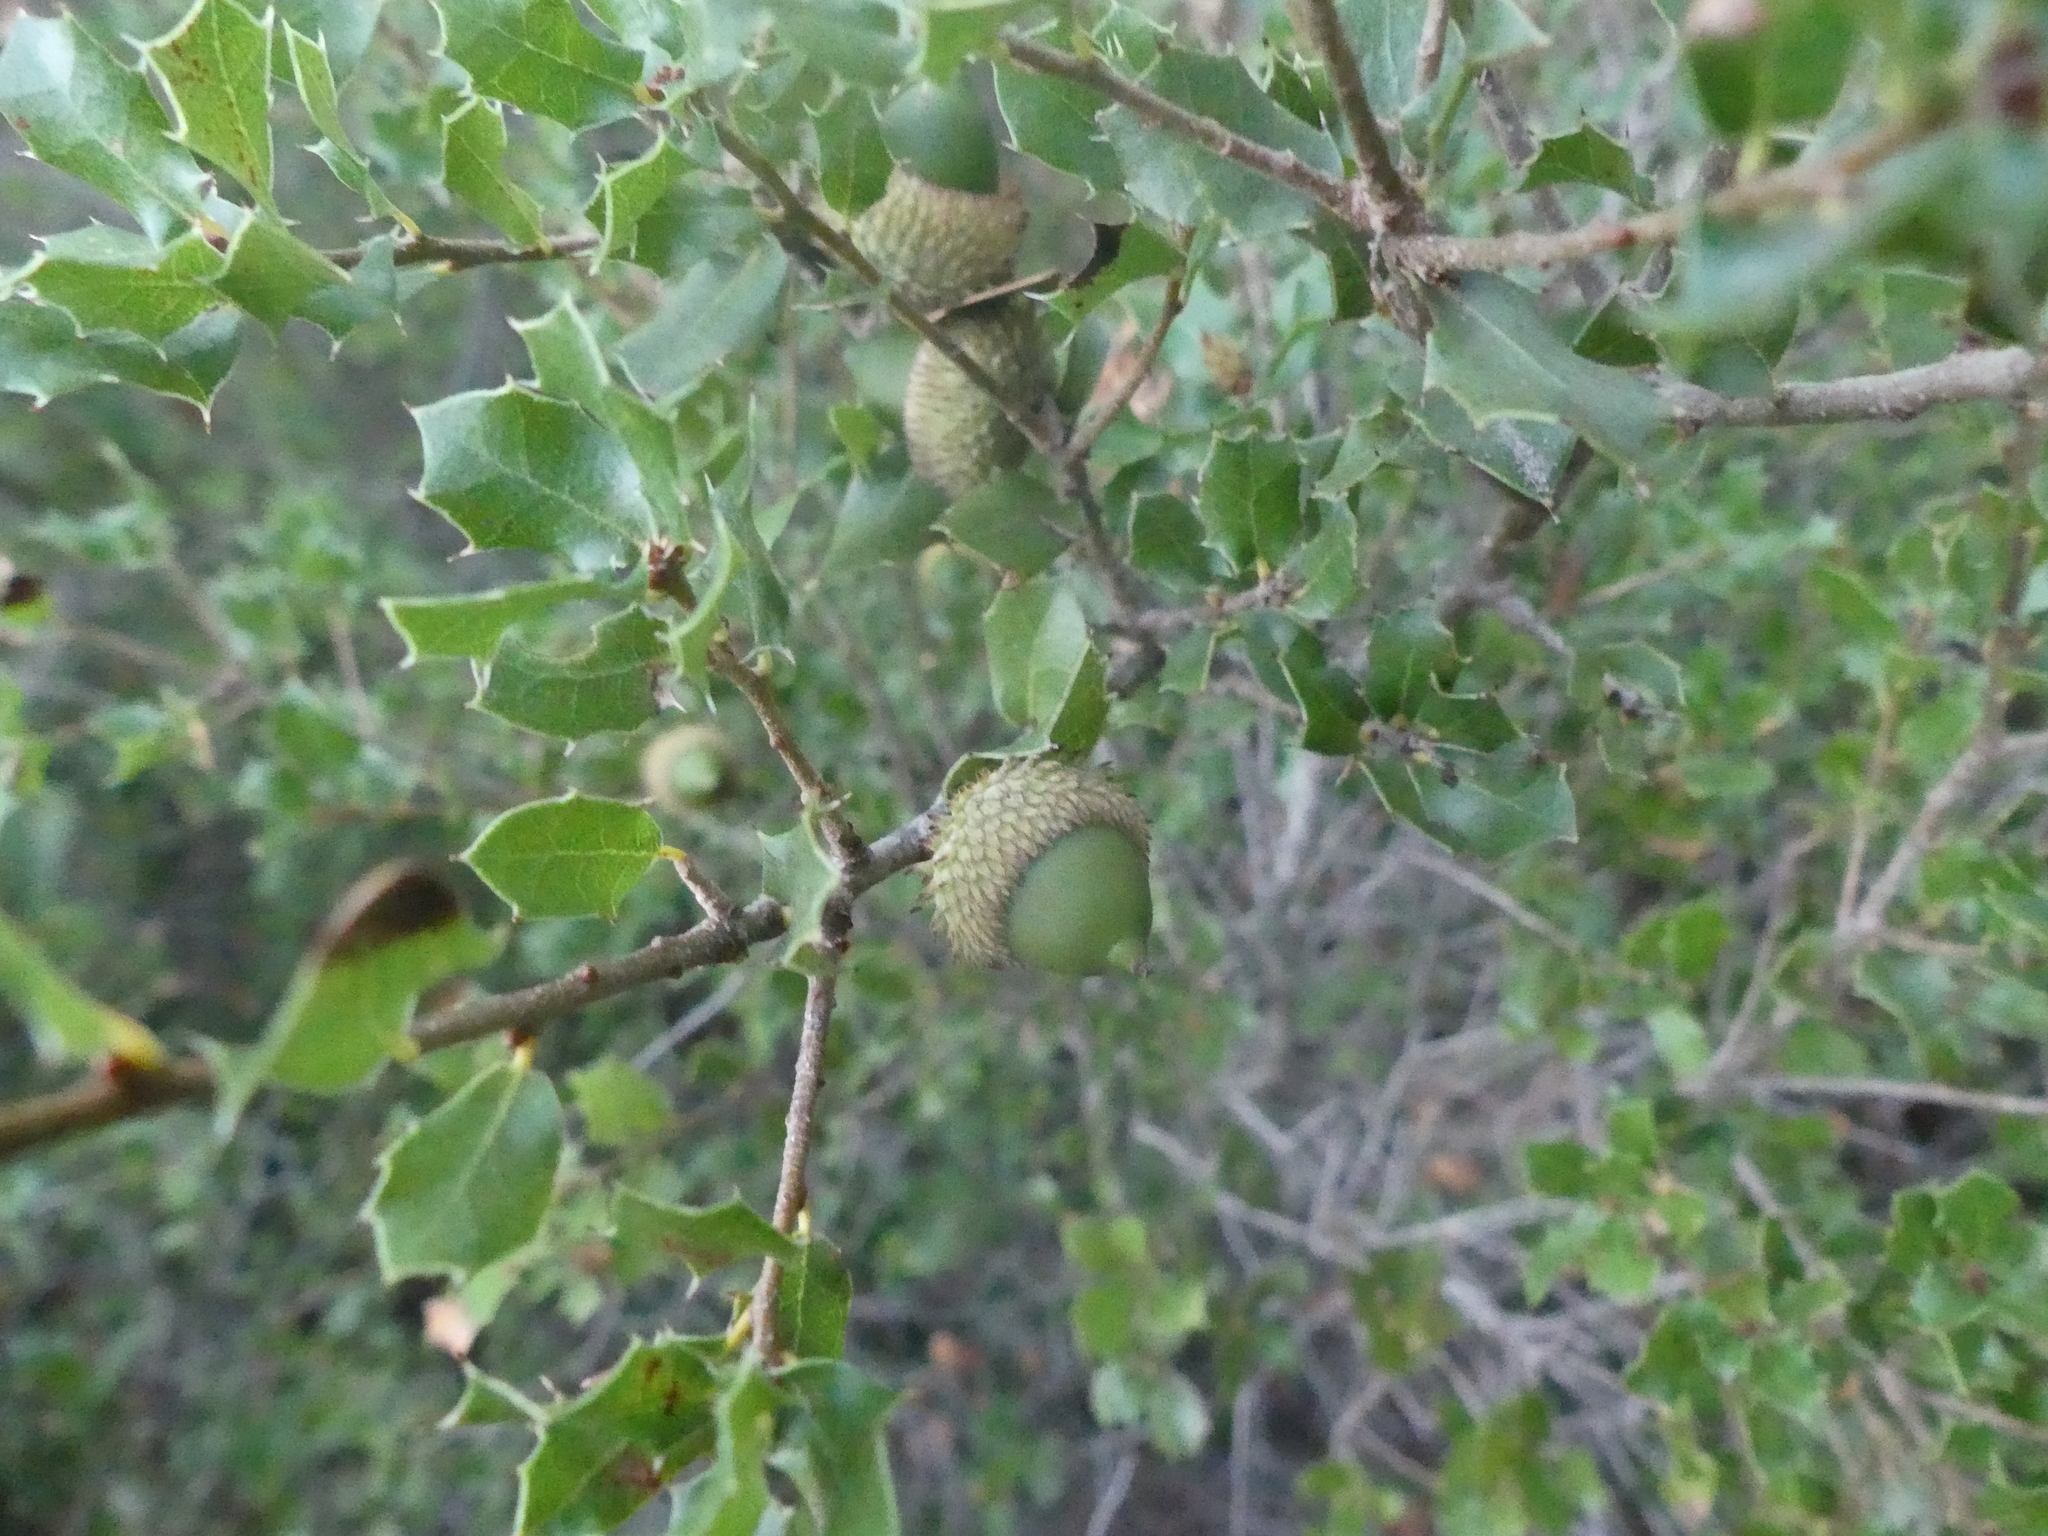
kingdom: Plantae
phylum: Tracheophyta
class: Magnoliopsida
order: Fagales
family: Fagaceae
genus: Quercus
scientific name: Quercus coccifera
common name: Kermes oak
